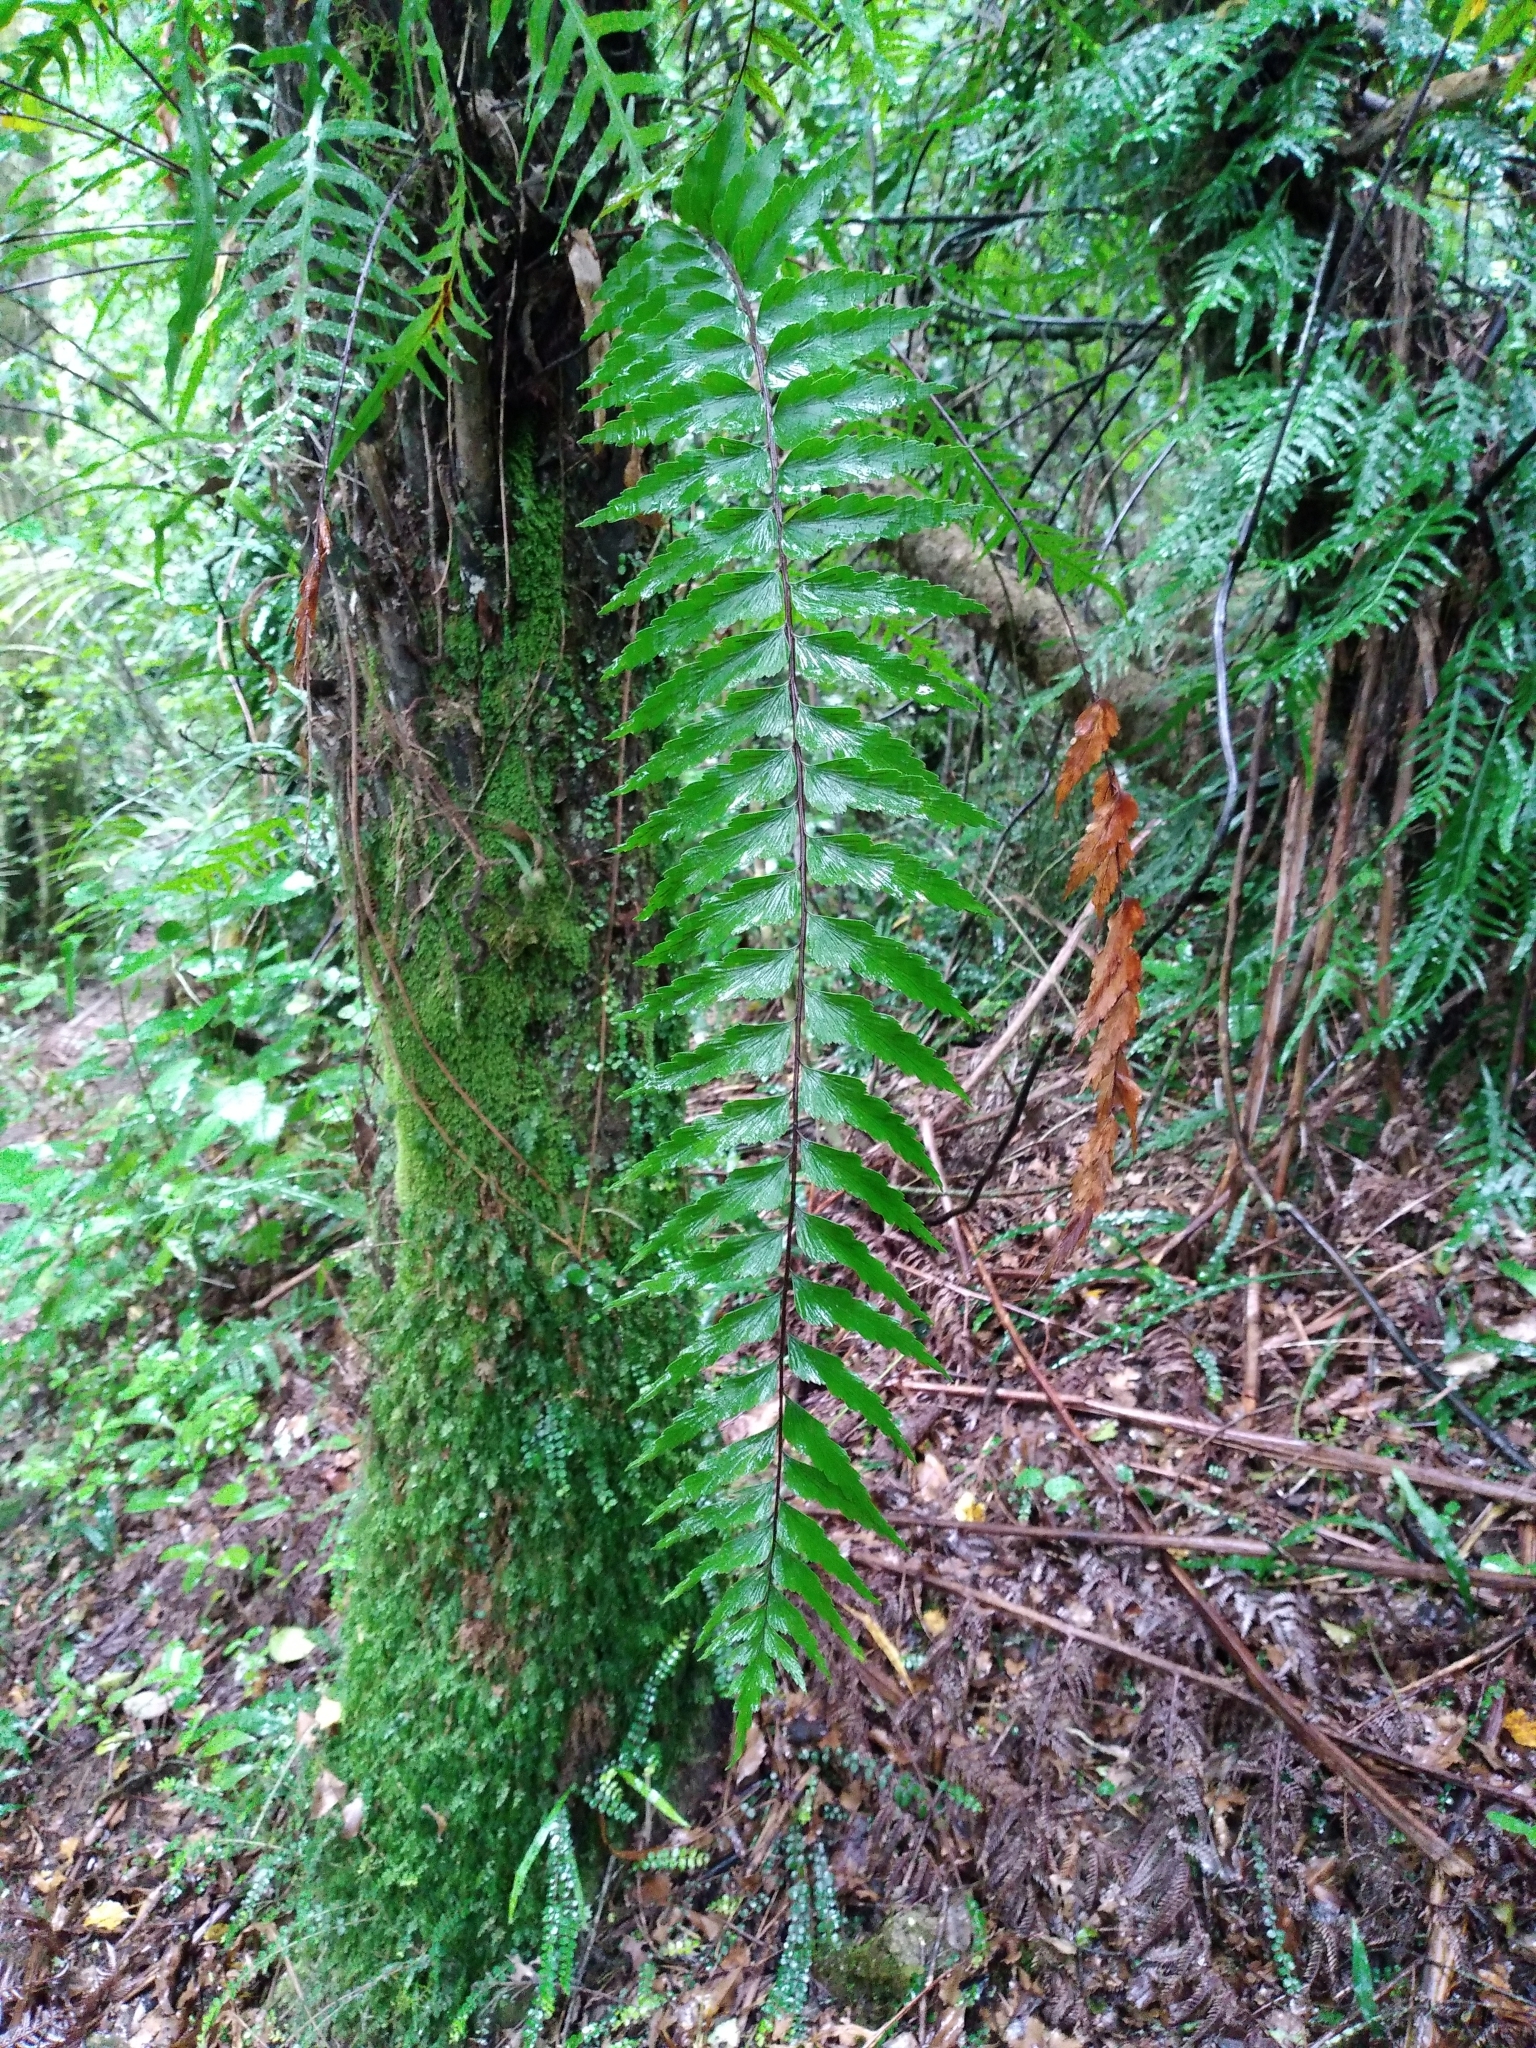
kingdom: Plantae
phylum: Tracheophyta
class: Polypodiopsida
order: Polypodiales
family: Aspleniaceae
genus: Asplenium
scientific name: Asplenium polyodon
